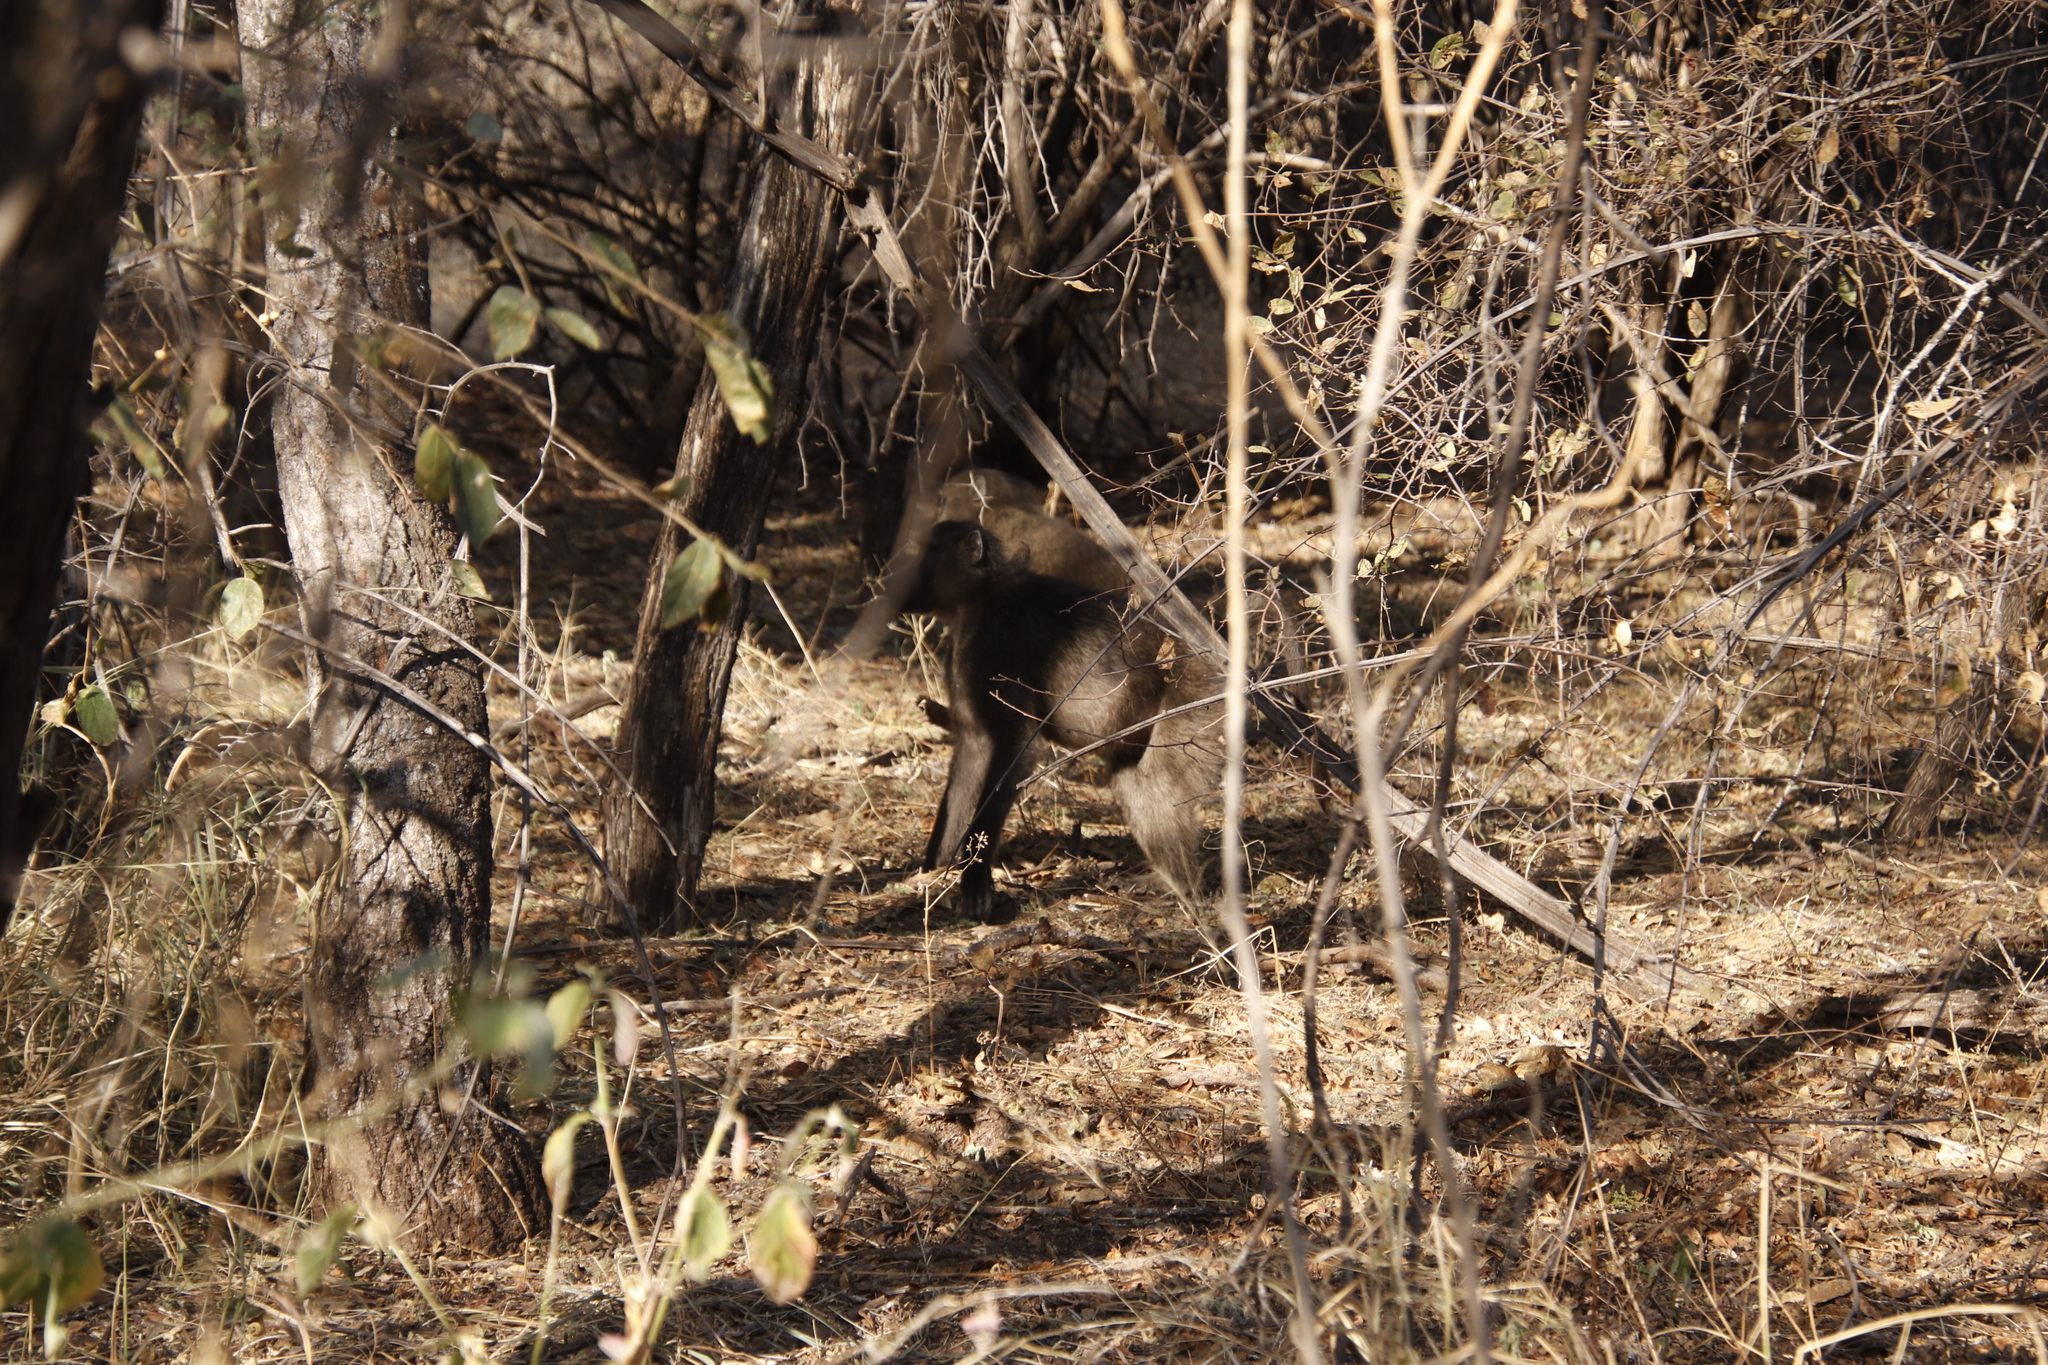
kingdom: Animalia
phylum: Chordata
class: Mammalia
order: Primates
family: Cercopithecidae
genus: Papio
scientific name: Papio ursinus
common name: Chacma baboon
